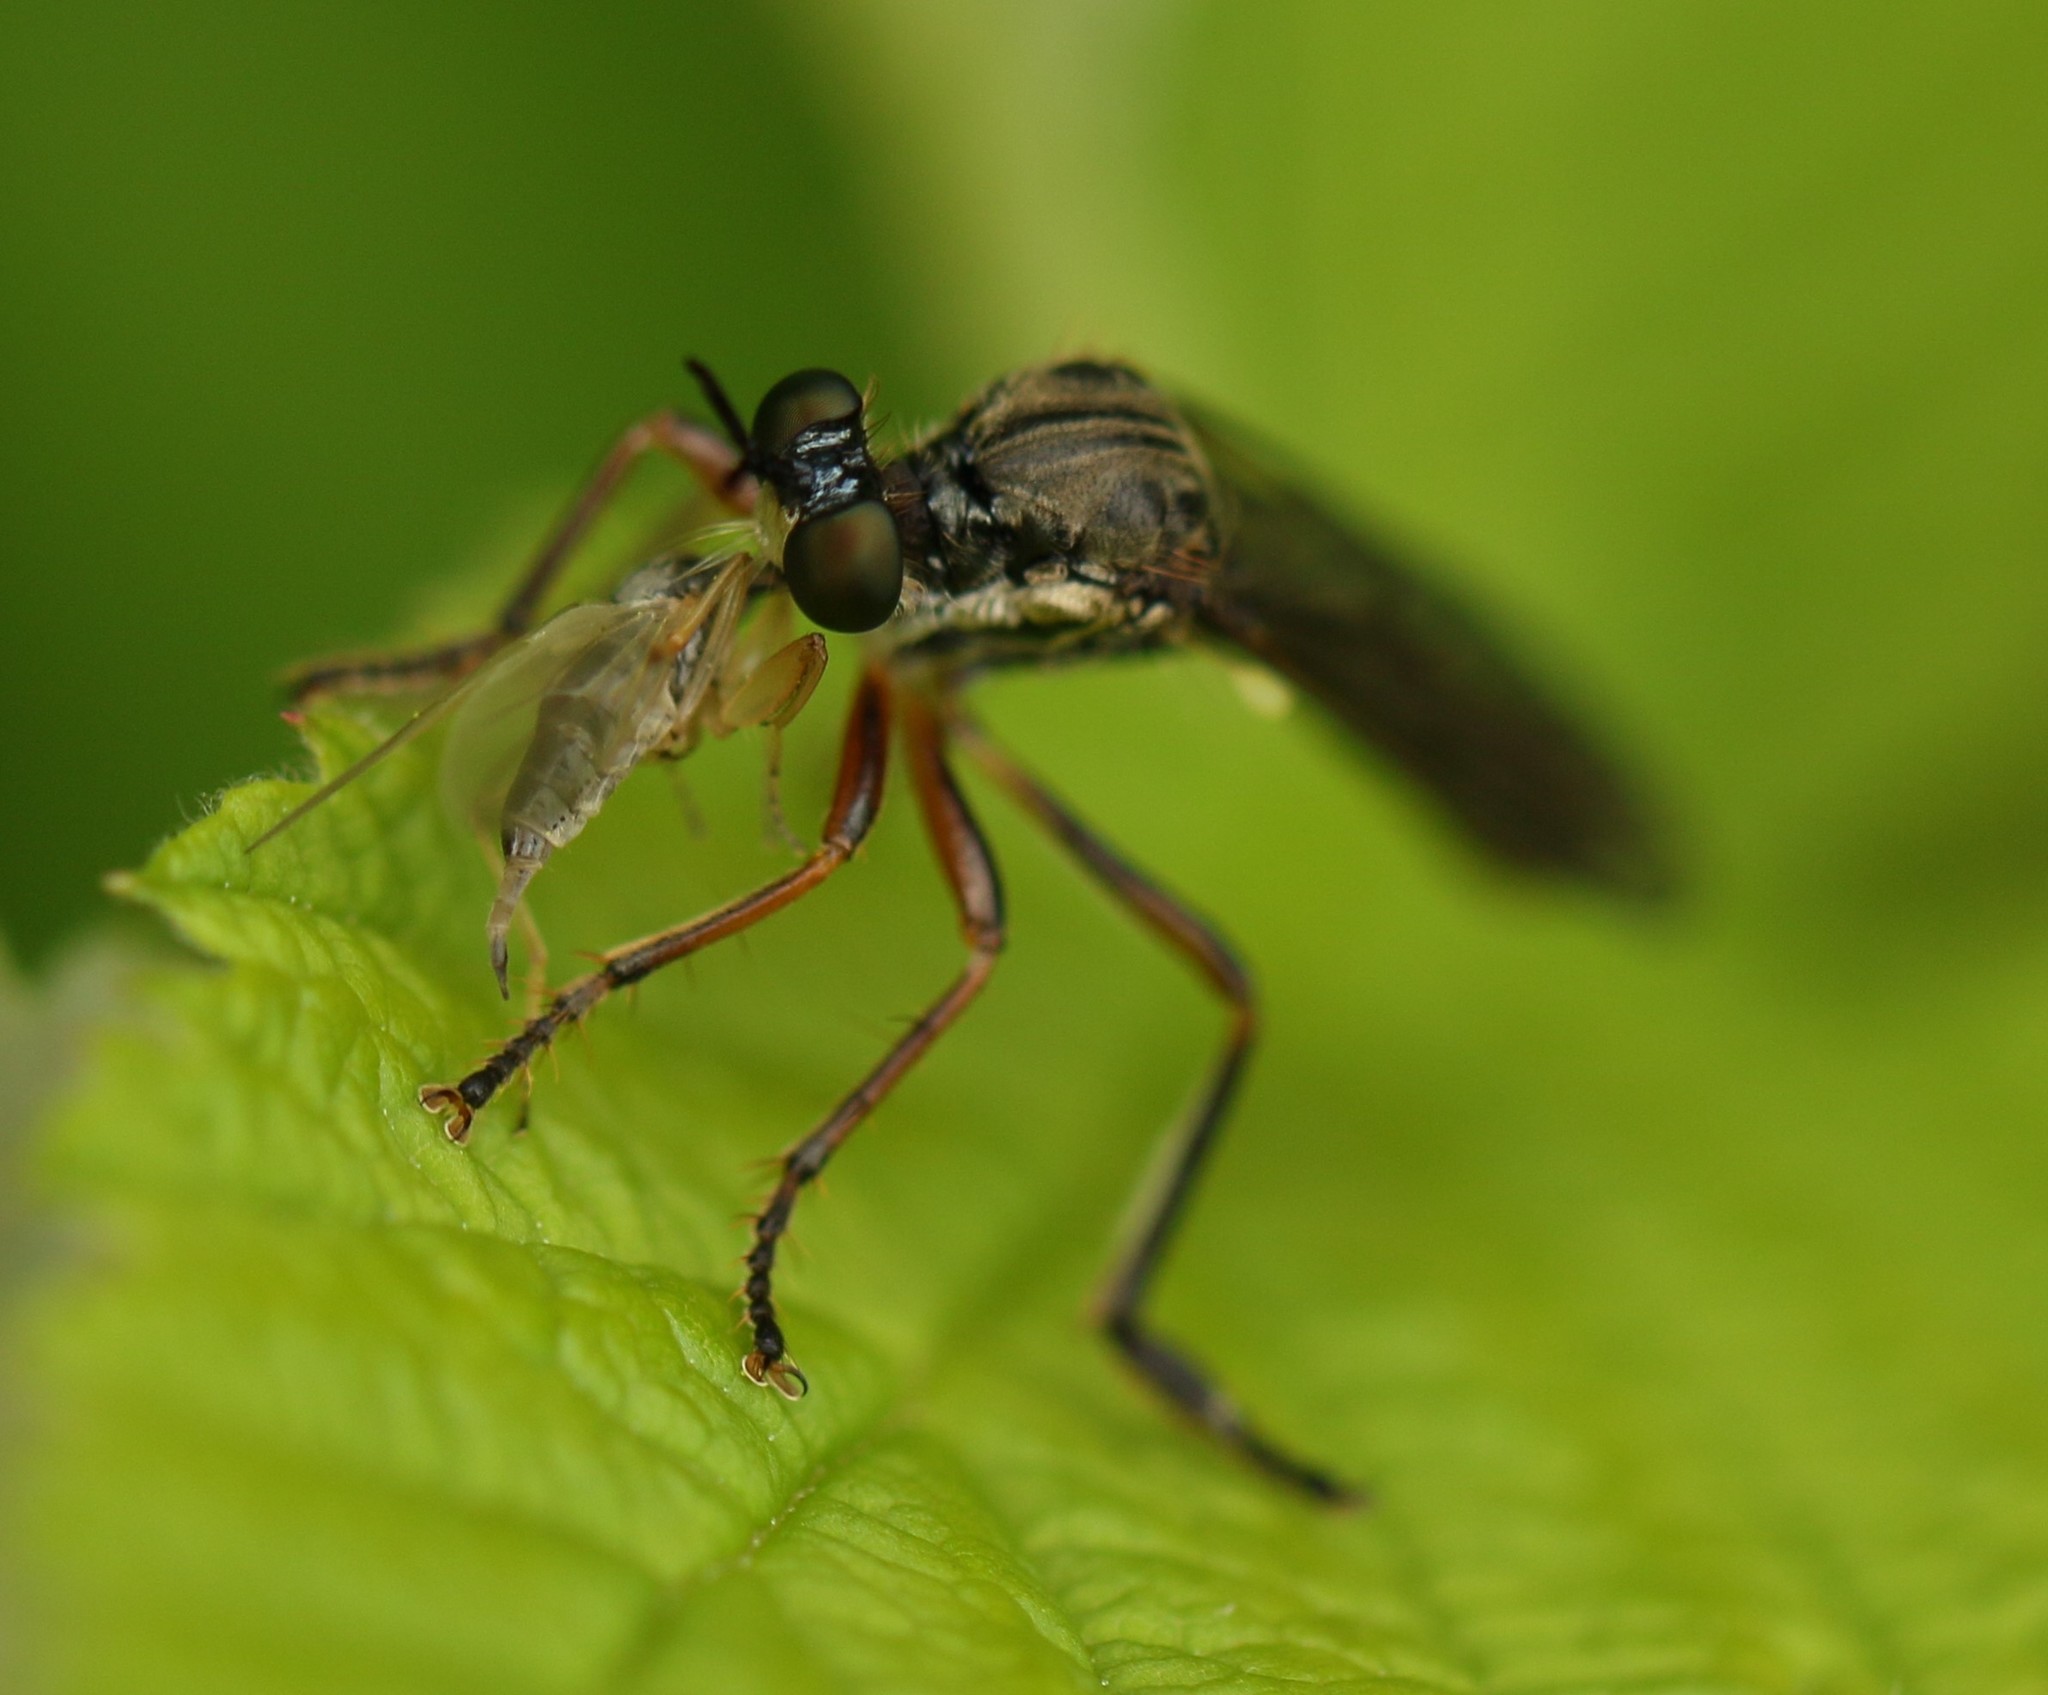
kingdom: Animalia
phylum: Arthropoda
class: Insecta
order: Diptera
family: Asilidae
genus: Dioctria
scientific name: Dioctria hyalipennis
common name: Stripe-legged robberfly
